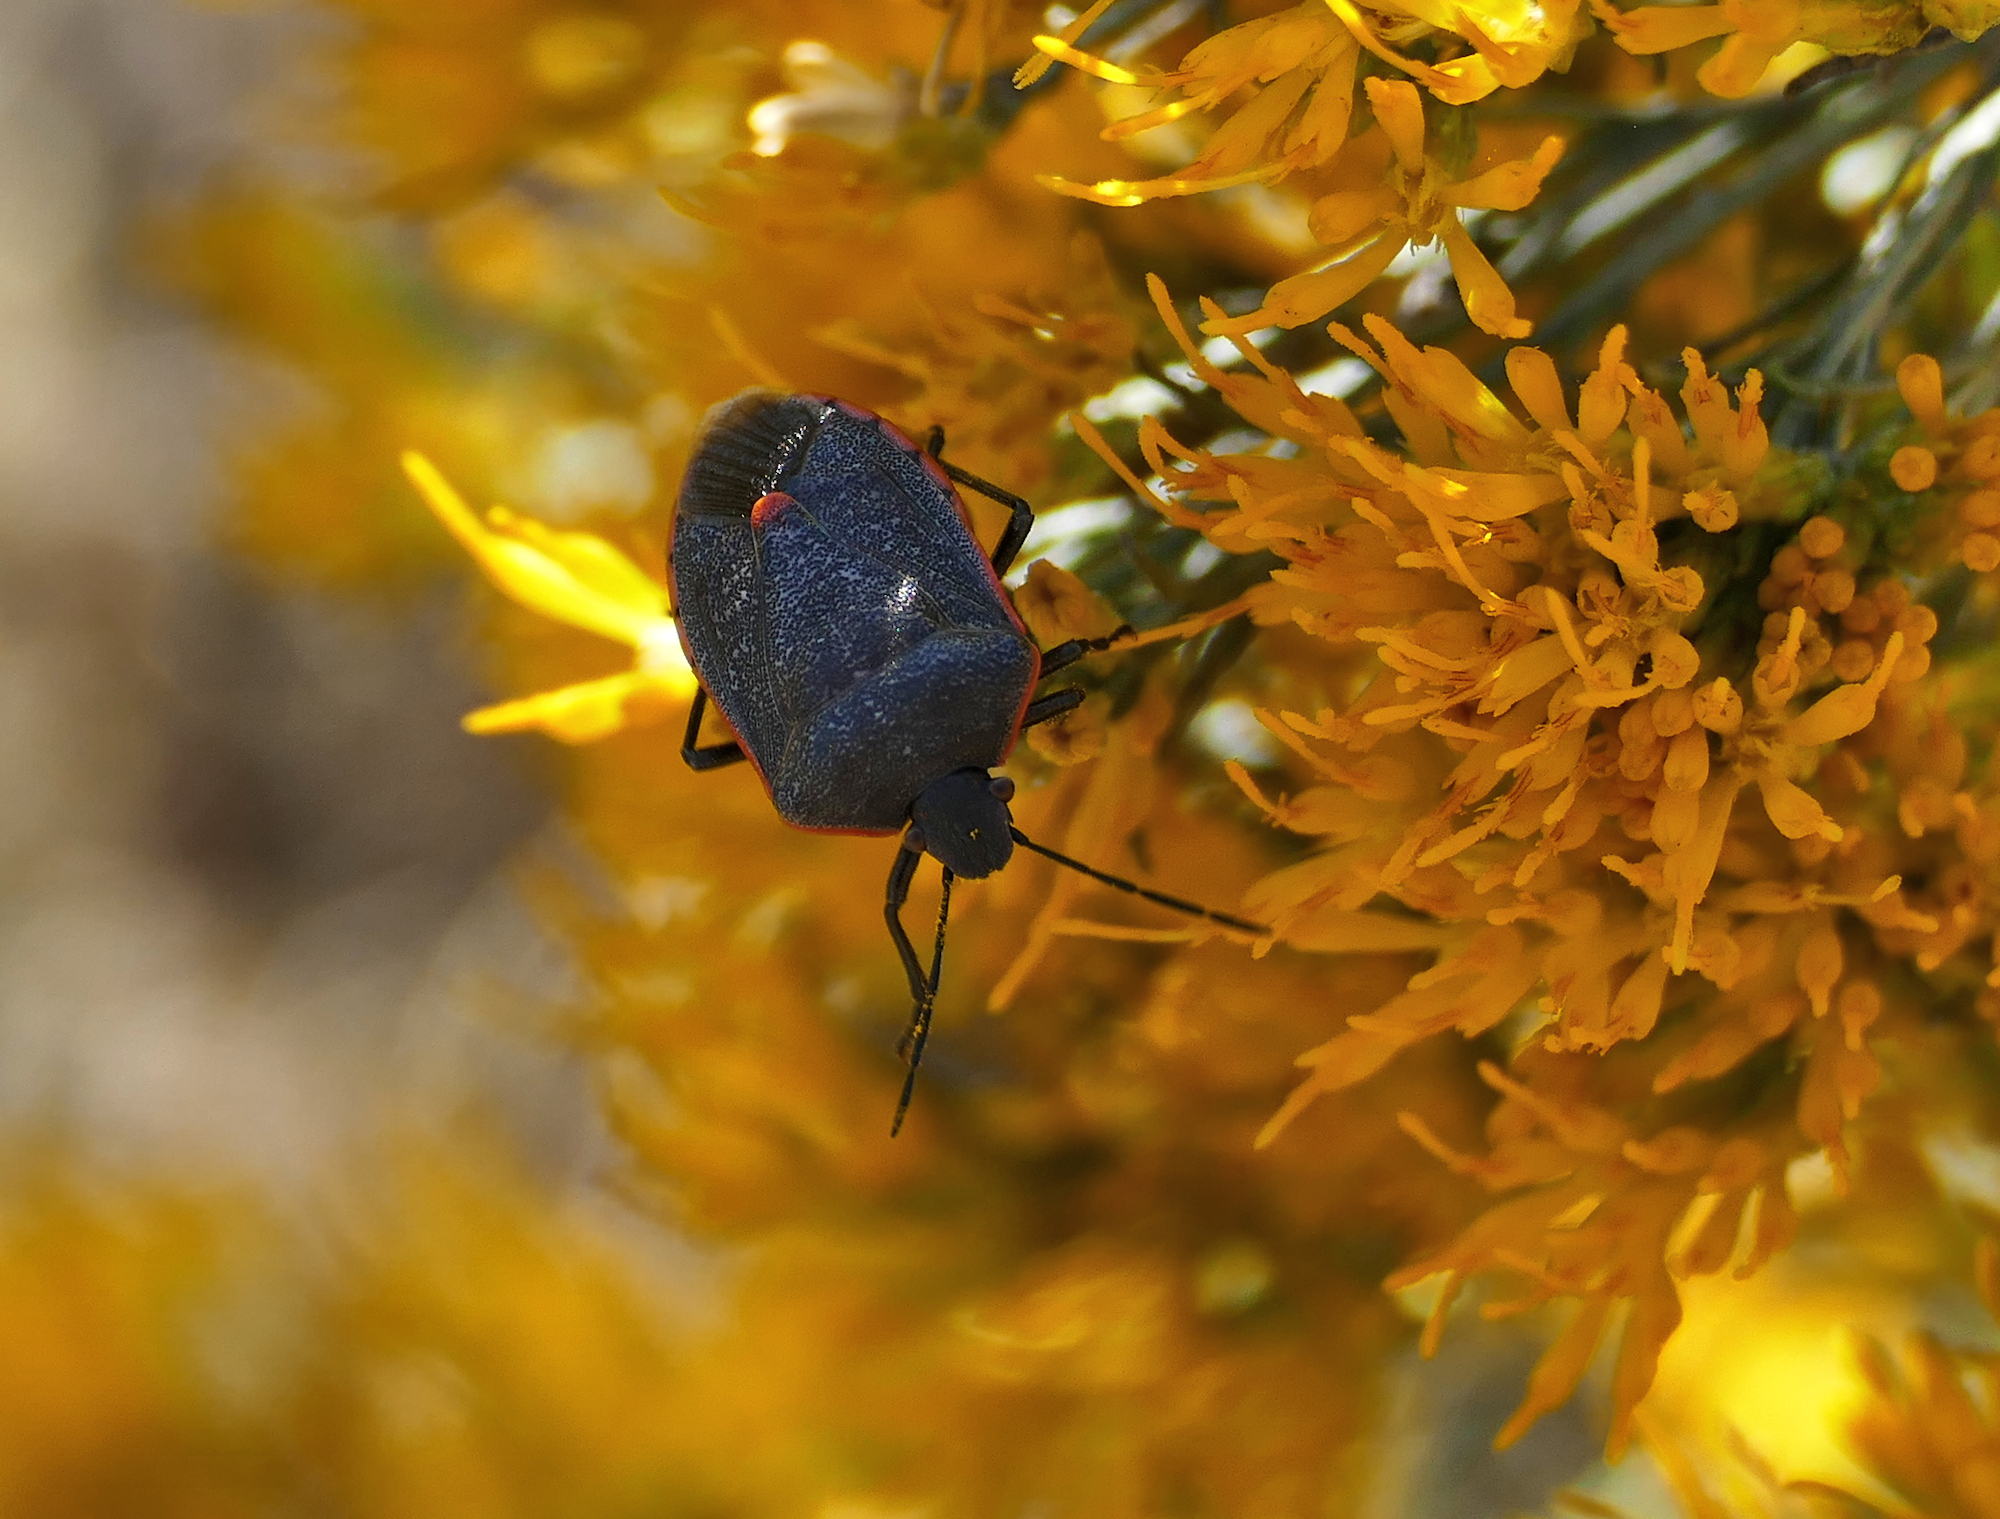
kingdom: Animalia
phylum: Arthropoda
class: Insecta
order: Hemiptera
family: Pentatomidae
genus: Chlorochroa
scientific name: Chlorochroa ligata
